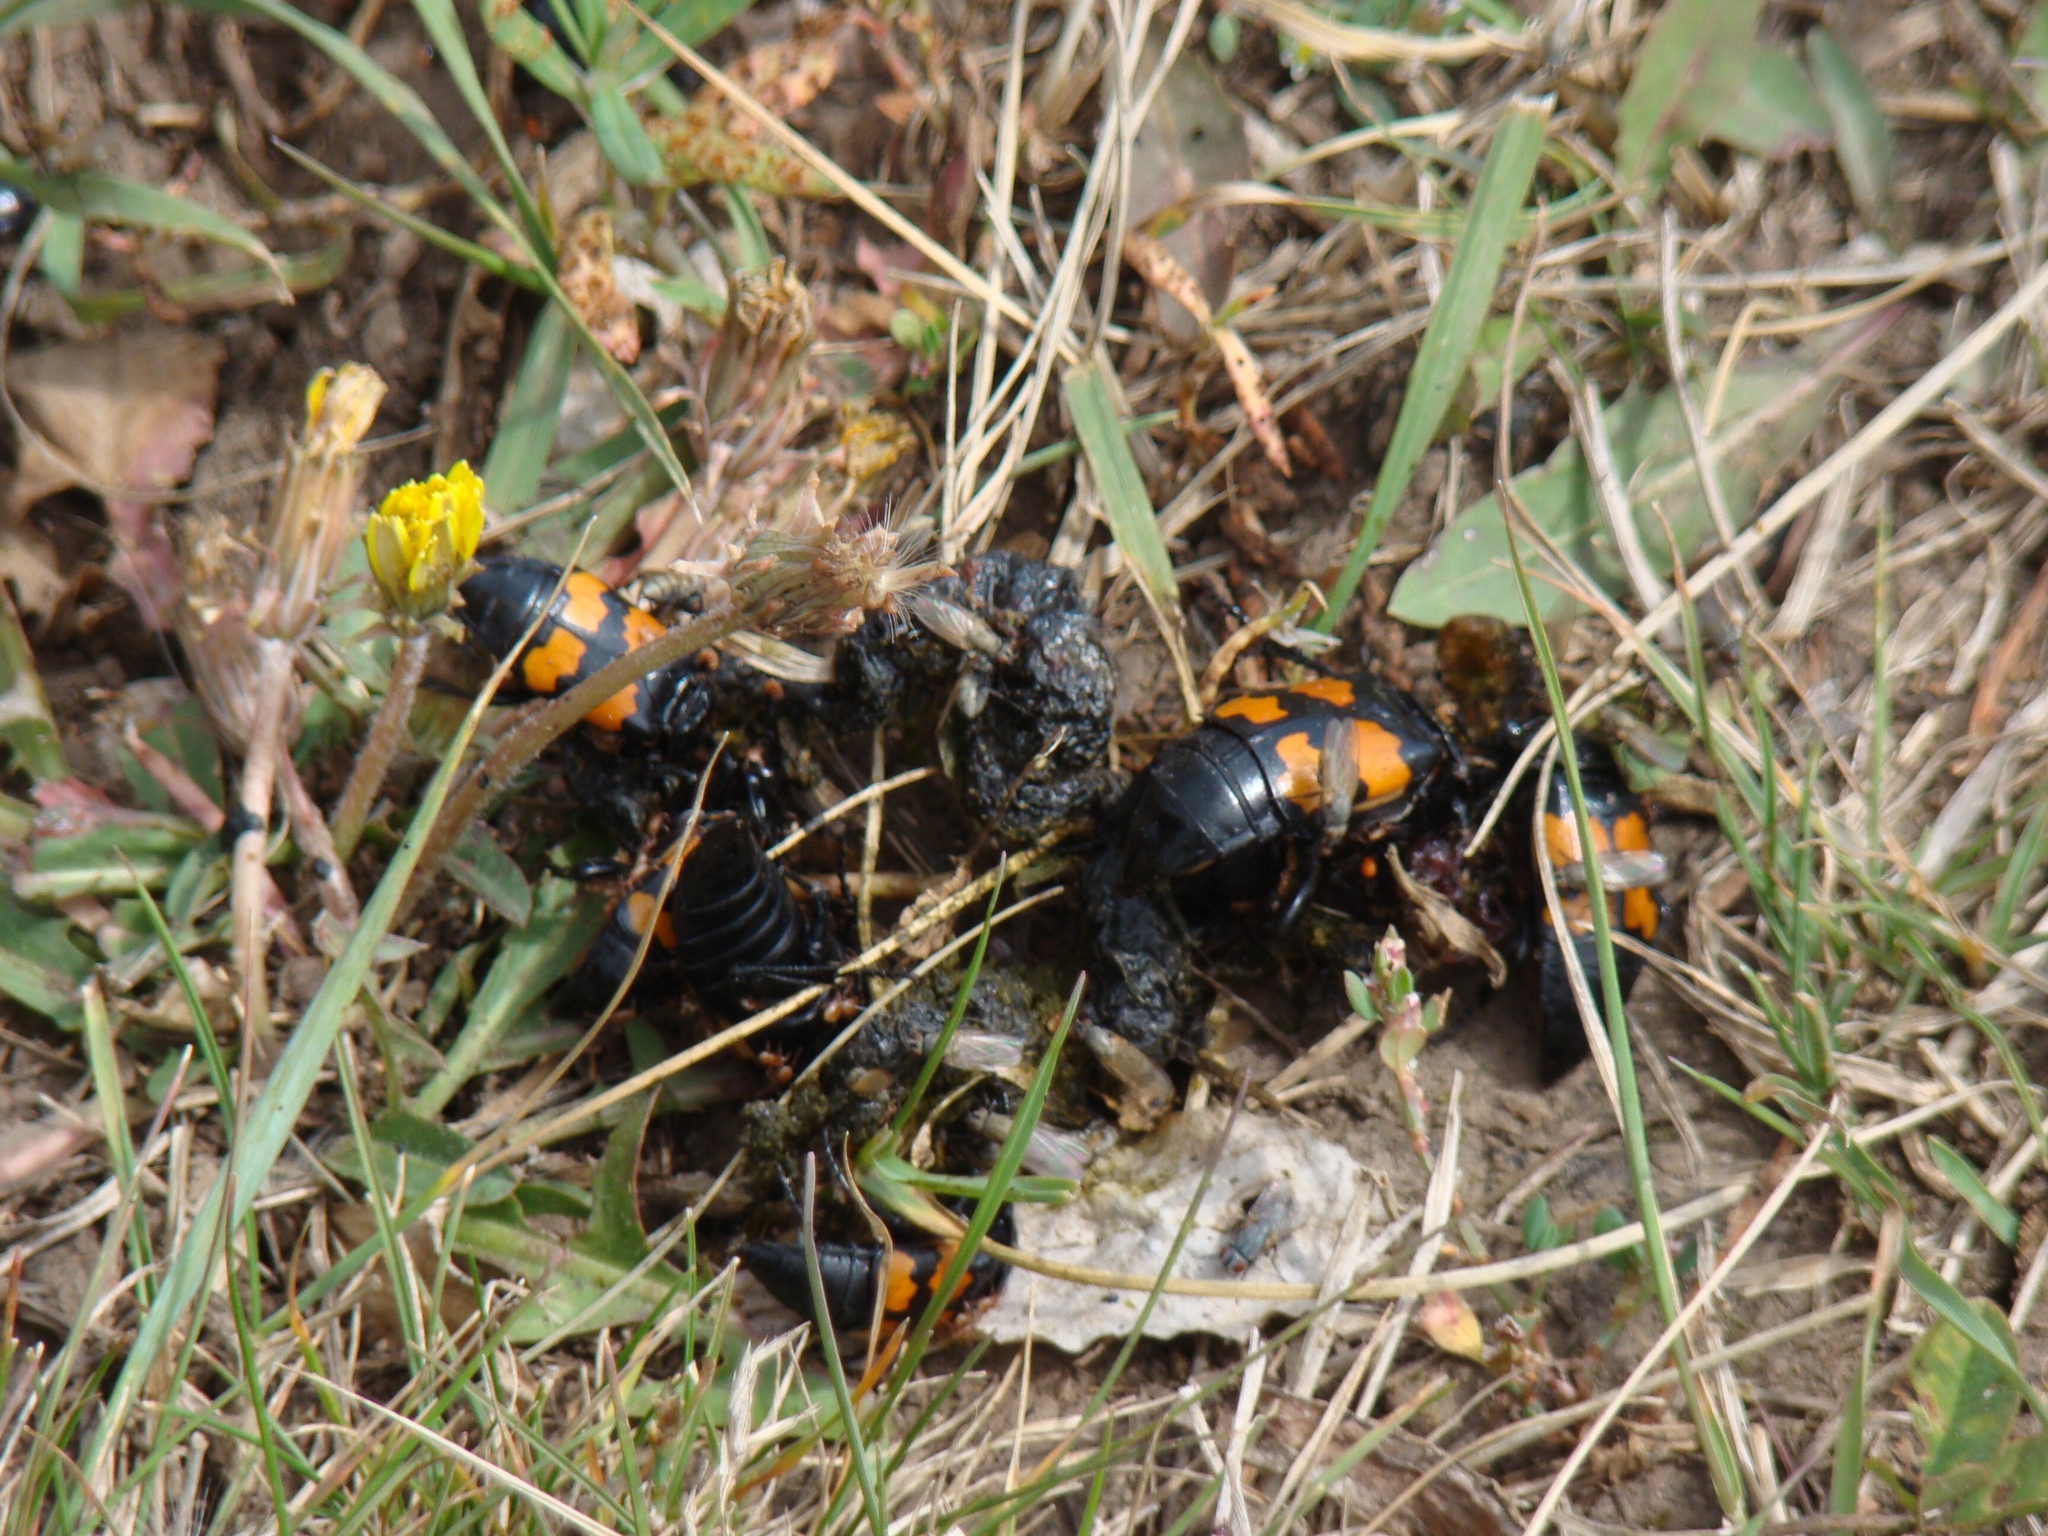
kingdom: Animalia
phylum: Arthropoda
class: Insecta
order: Coleoptera
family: Staphylinidae
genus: Nicrophorus
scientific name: Nicrophorus interruptus
